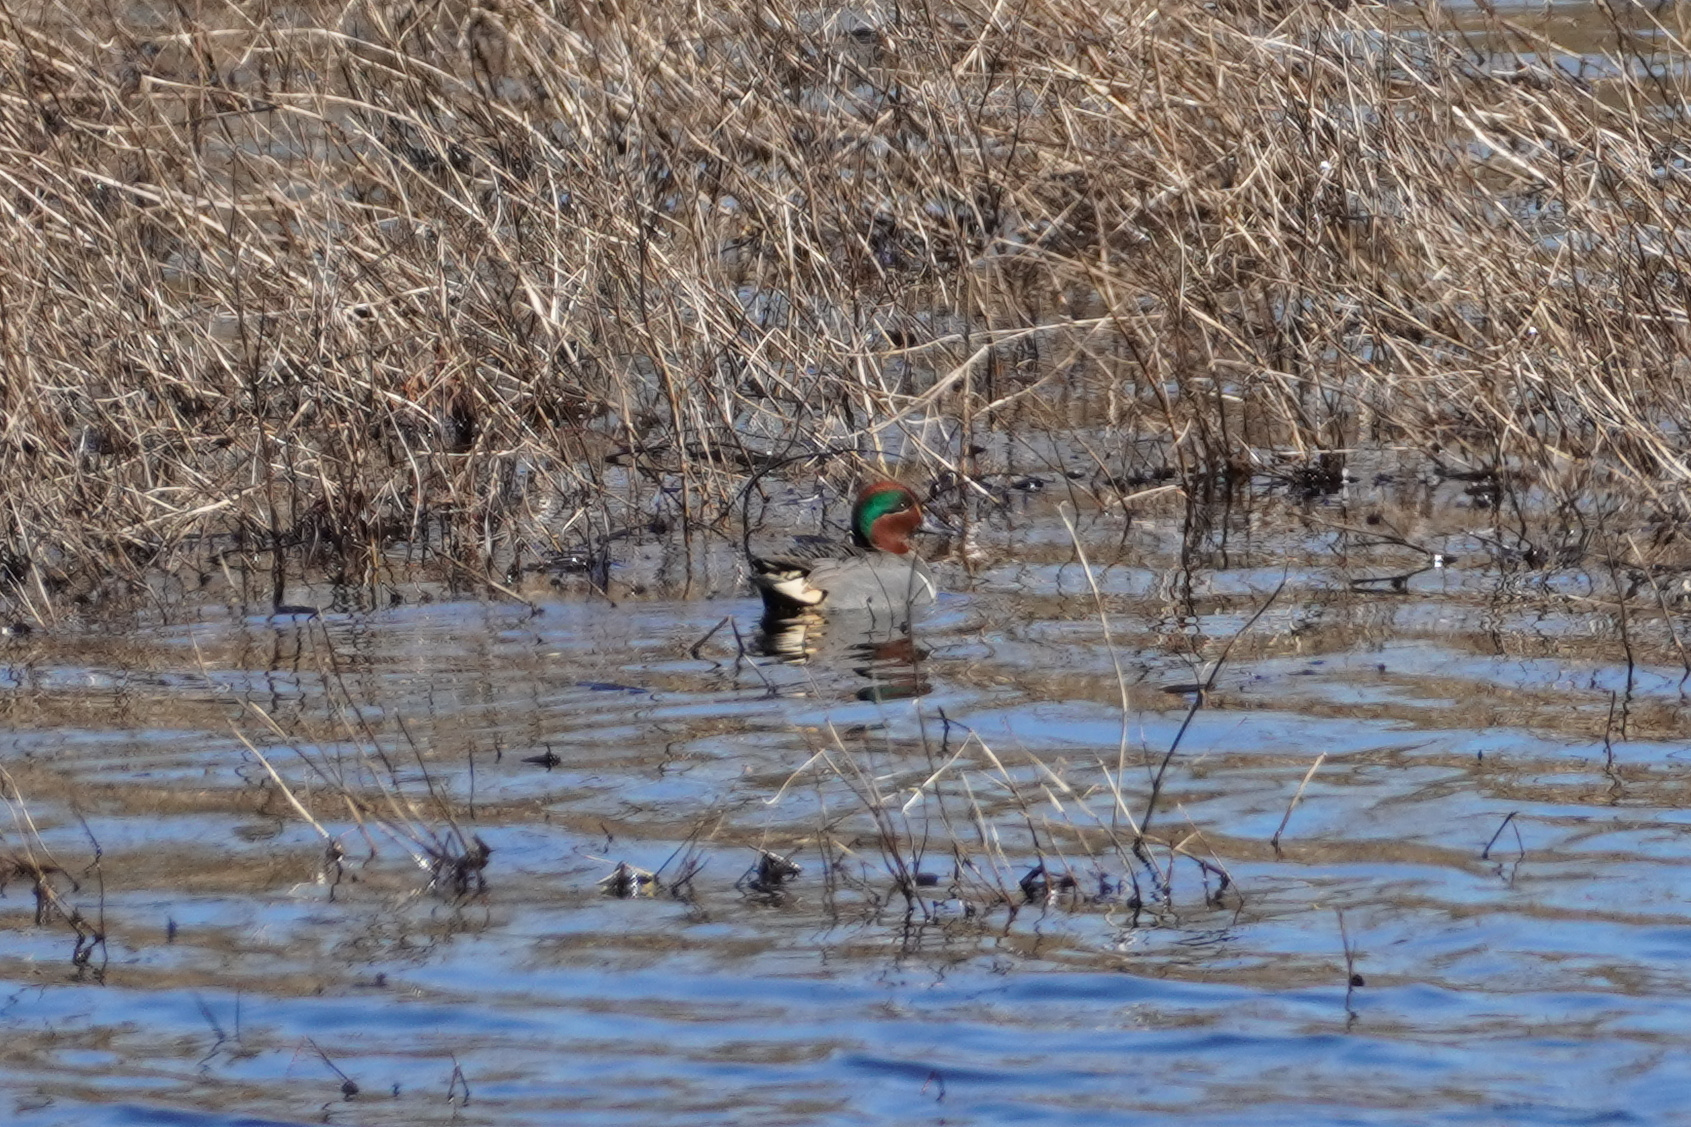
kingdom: Animalia
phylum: Chordata
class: Aves
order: Anseriformes
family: Anatidae
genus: Anas
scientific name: Anas crecca
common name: Eurasian teal
